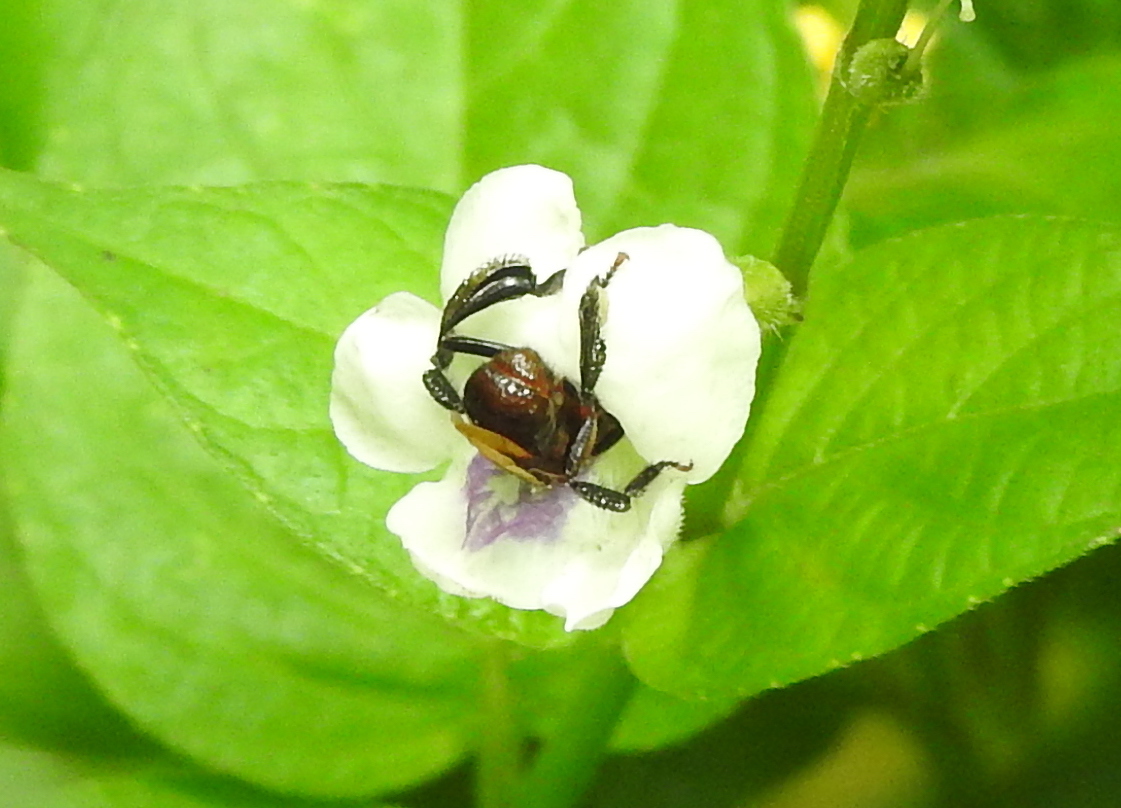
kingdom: Animalia
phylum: Arthropoda
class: Insecta
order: Hymenoptera
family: Apidae
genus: Geniotrigona
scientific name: Geniotrigona thoracica
